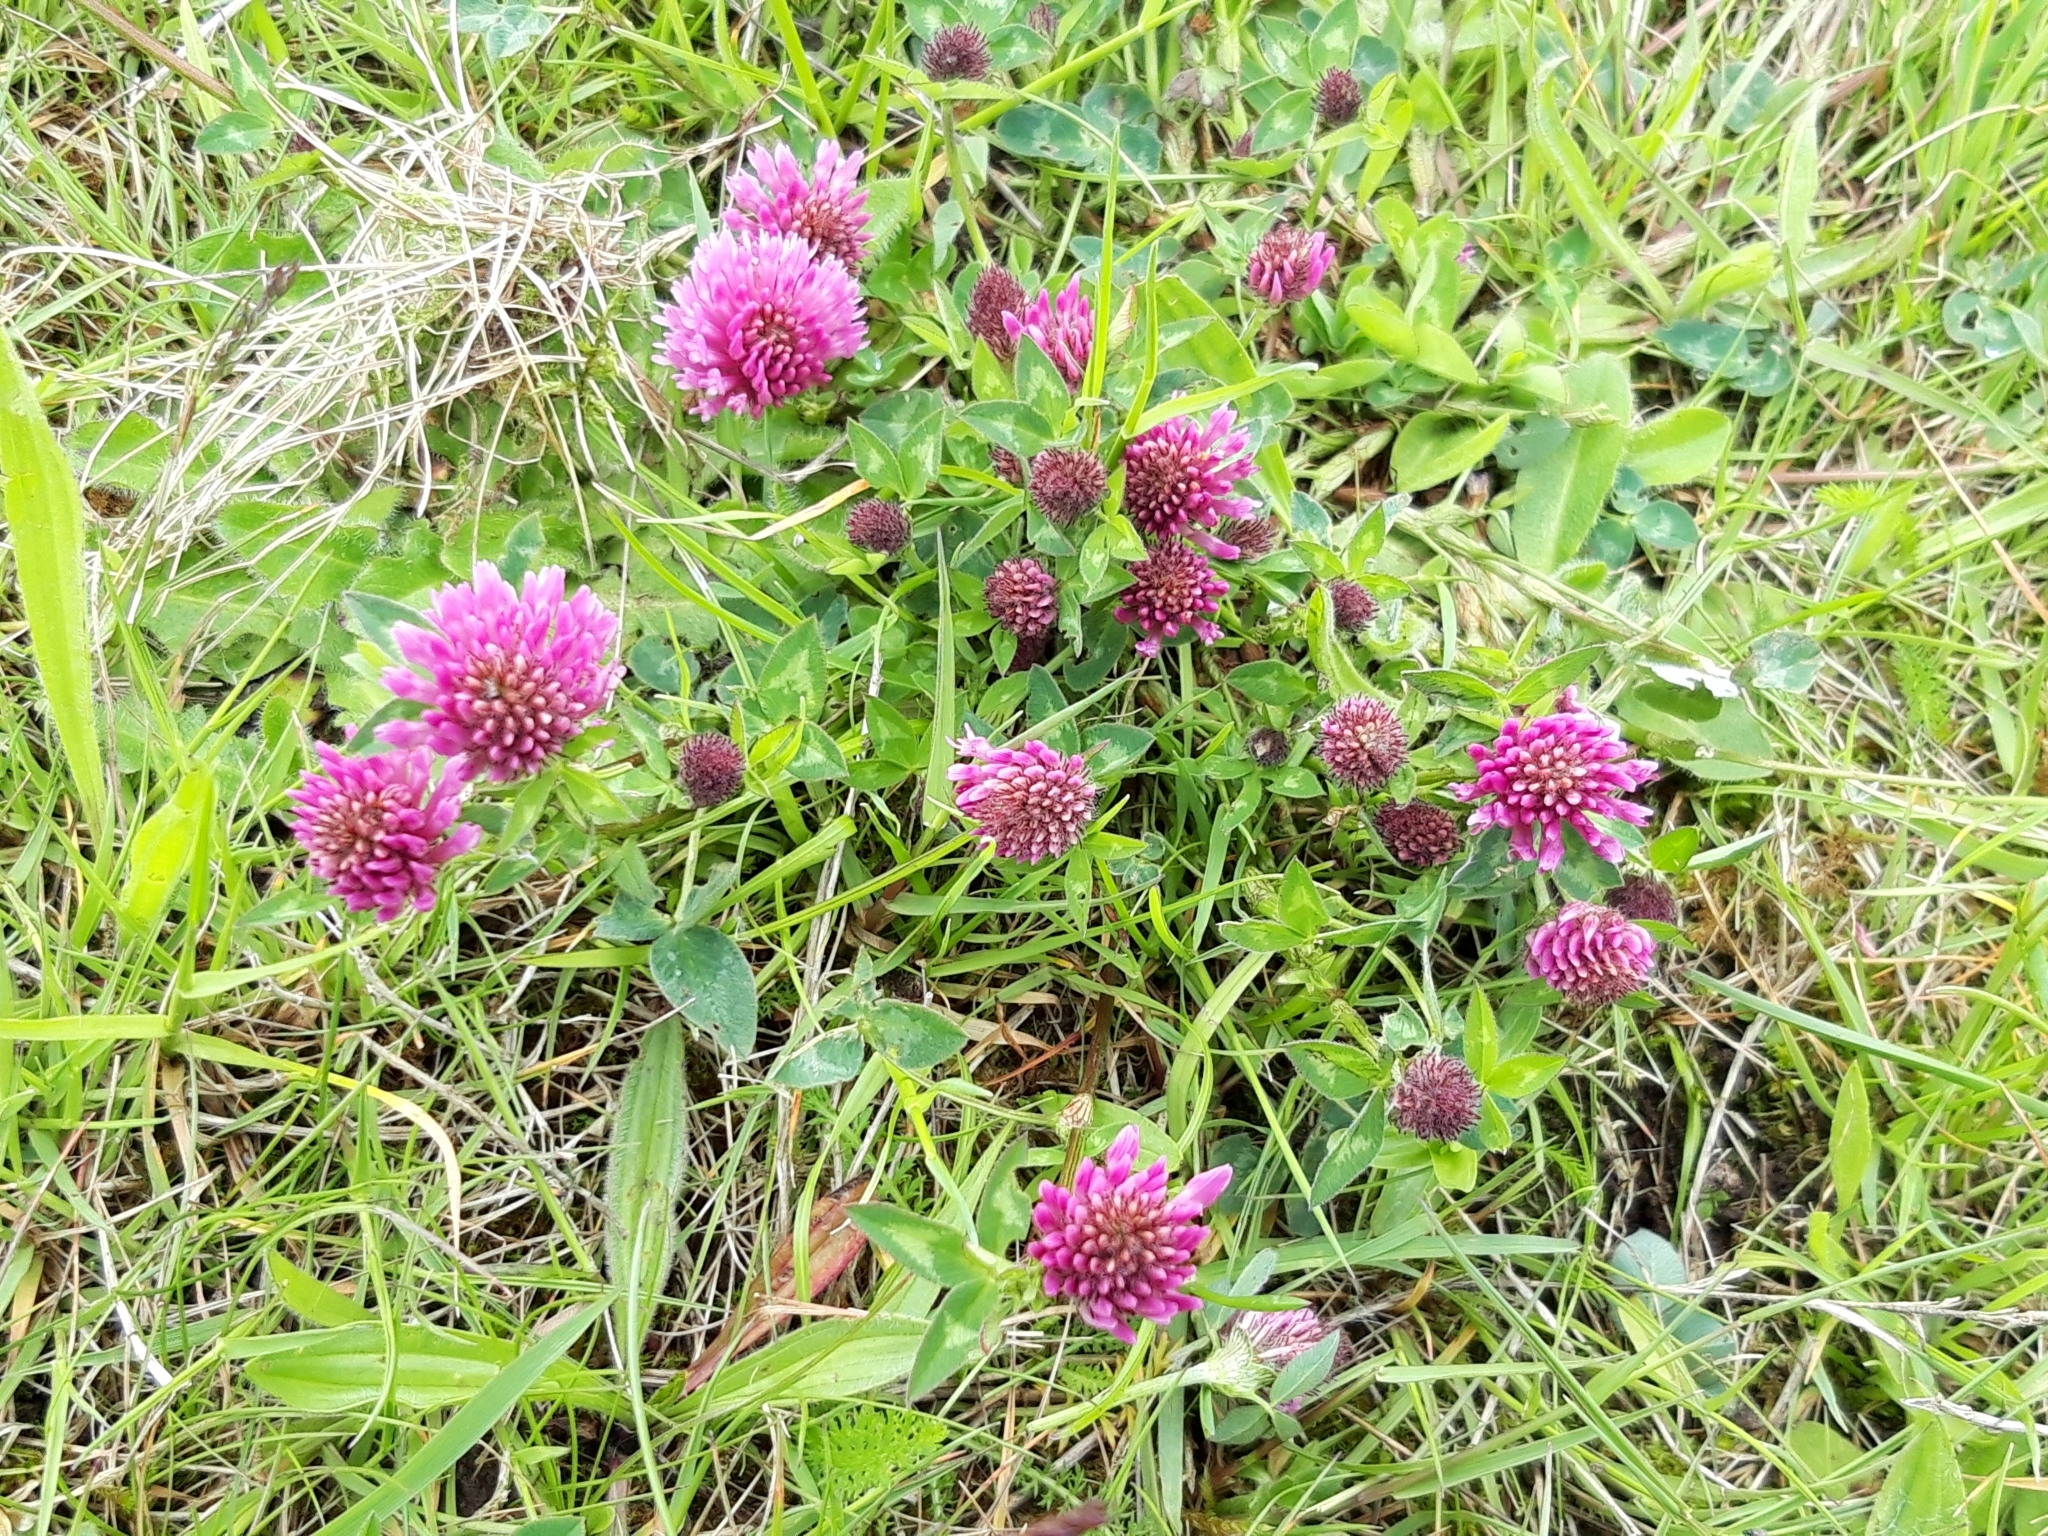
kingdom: Plantae
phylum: Tracheophyta
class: Magnoliopsida
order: Fabales
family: Fabaceae
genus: Trifolium
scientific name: Trifolium pratense
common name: Red clover
